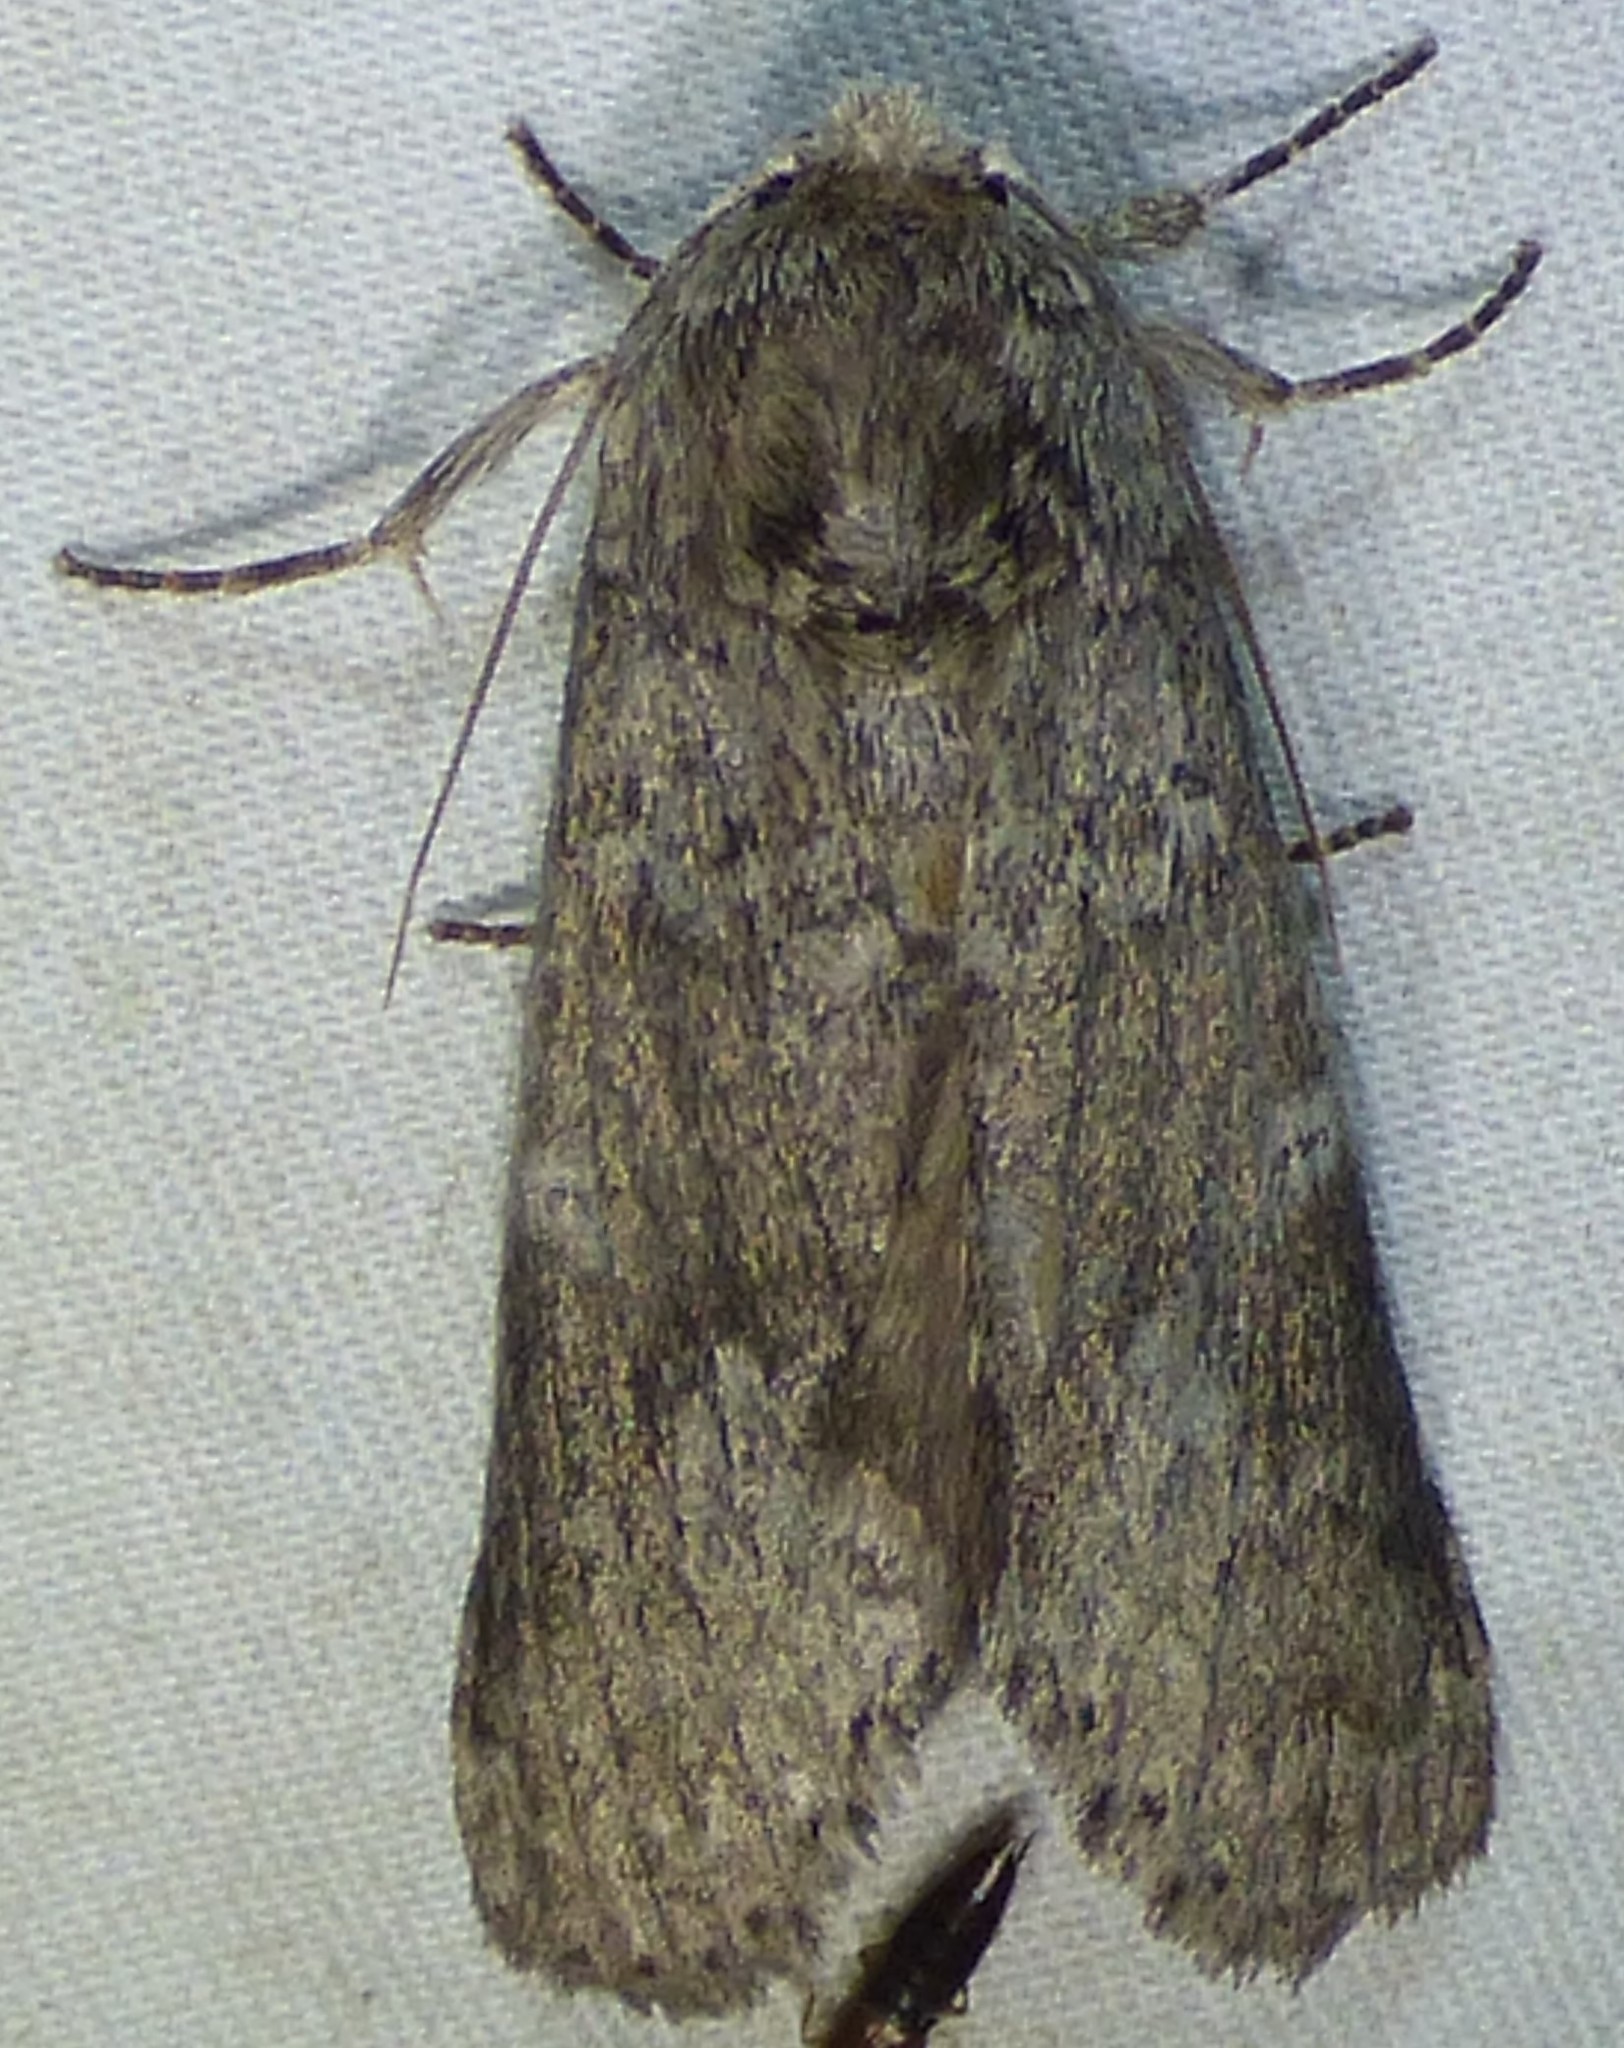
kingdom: Animalia
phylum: Arthropoda
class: Insecta
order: Lepidoptera
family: Notodontidae
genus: Lochmaeus
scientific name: Lochmaeus manteo
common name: Variable oakleaf caterpillar moth
